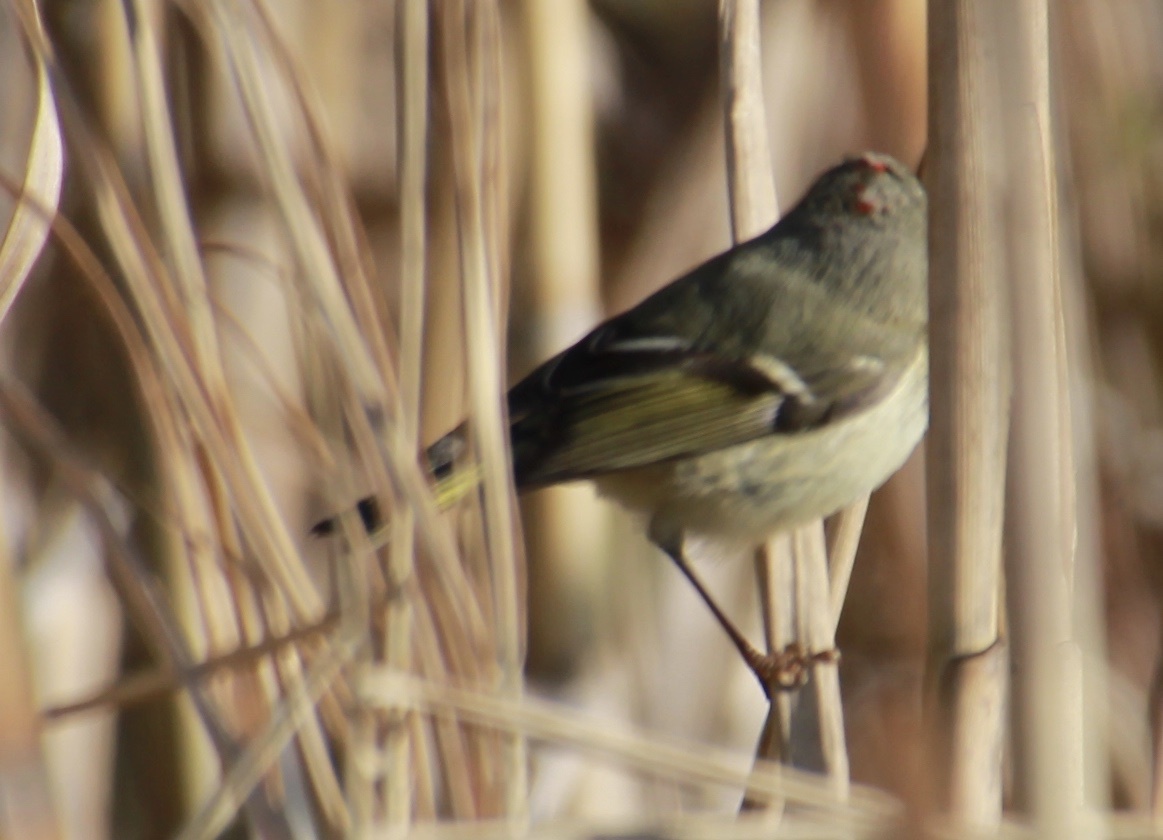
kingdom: Animalia
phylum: Chordata
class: Aves
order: Passeriformes
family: Regulidae
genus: Regulus
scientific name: Regulus calendula
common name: Ruby-crowned kinglet
